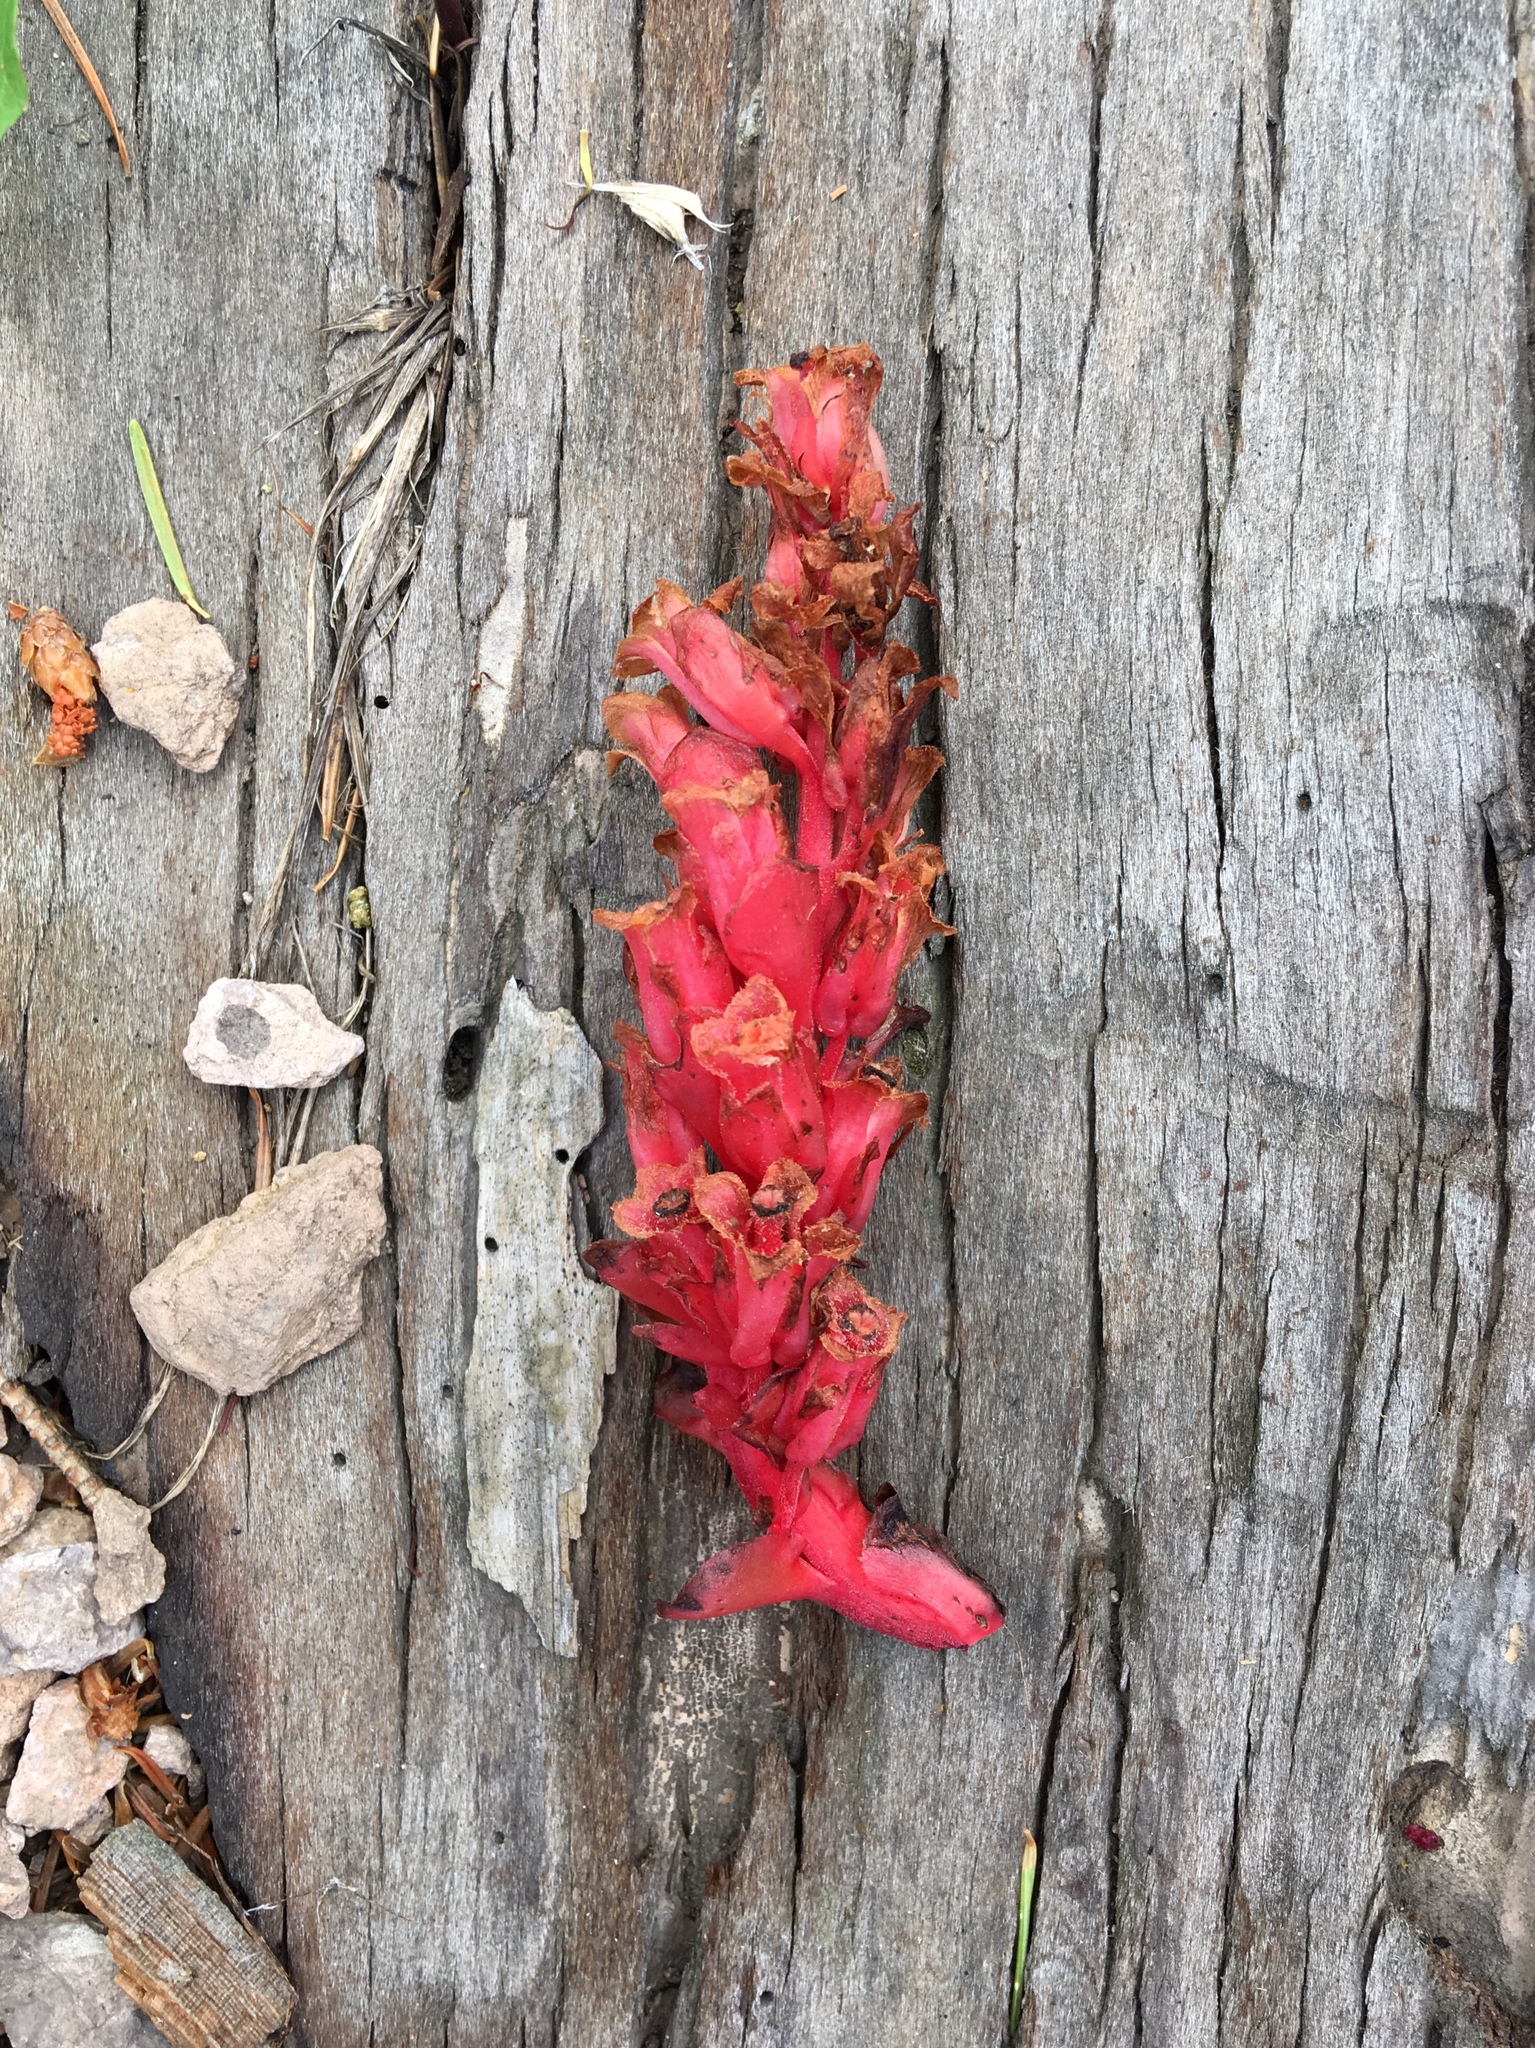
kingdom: Plantae
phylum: Tracheophyta
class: Magnoliopsida
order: Ericales
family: Ericaceae
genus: Hypopitys
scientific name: Hypopitys monotropa
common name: Yellow bird's-nest
